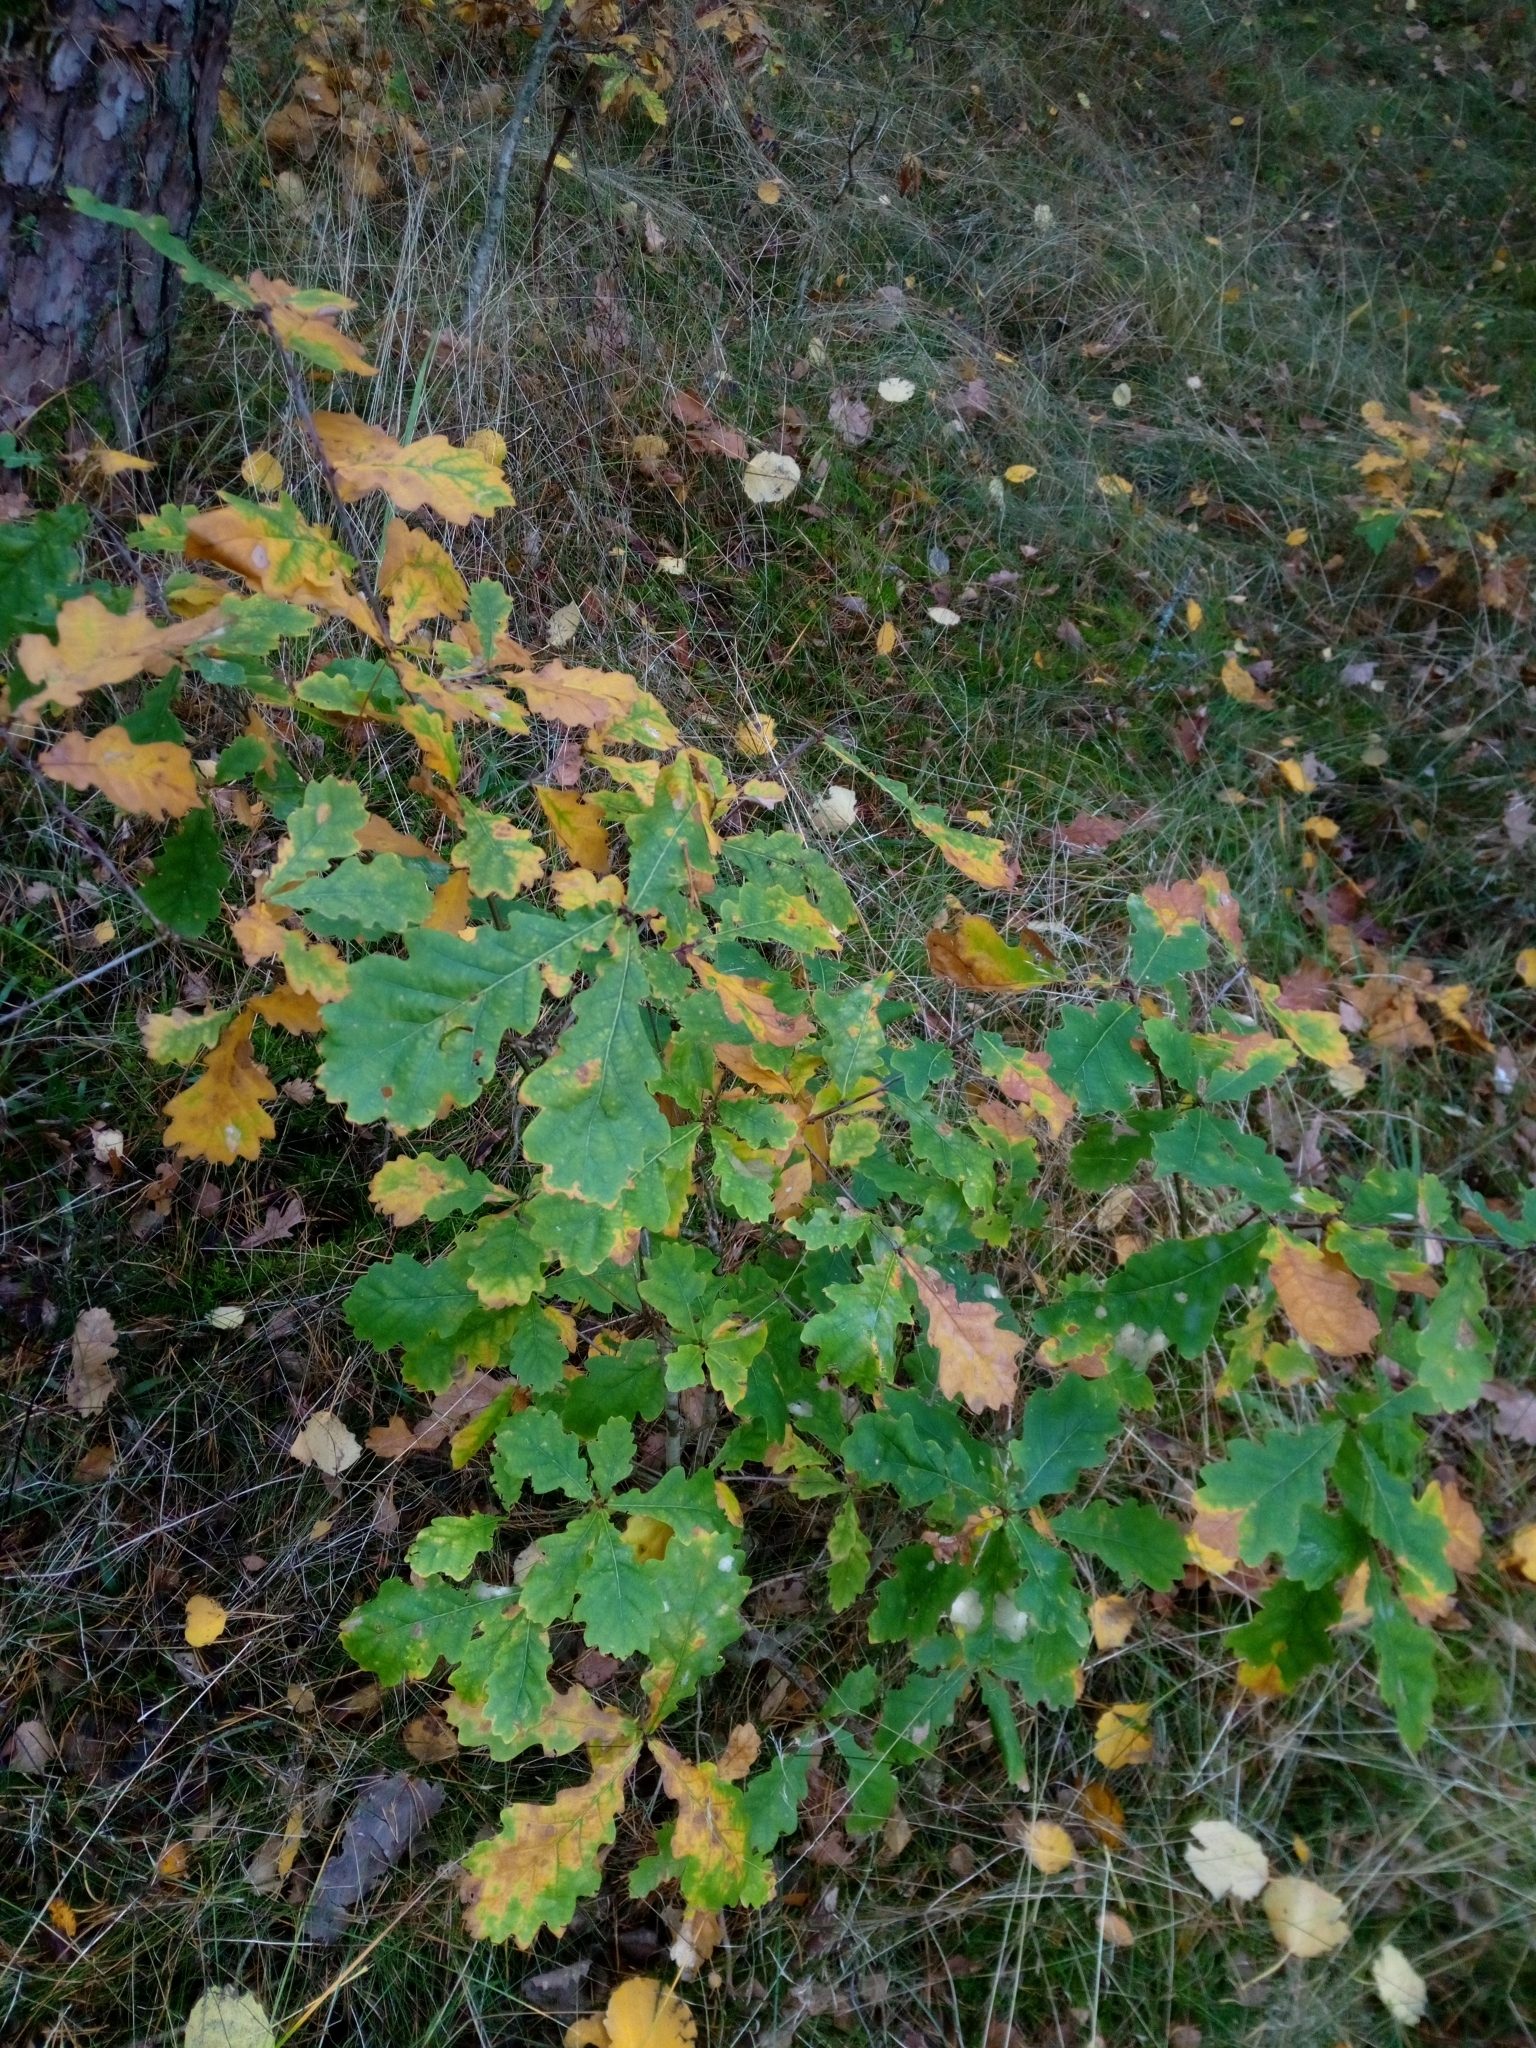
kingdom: Plantae
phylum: Tracheophyta
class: Magnoliopsida
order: Fagales
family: Fagaceae
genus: Quercus
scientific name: Quercus robur
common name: Pedunculate oak
